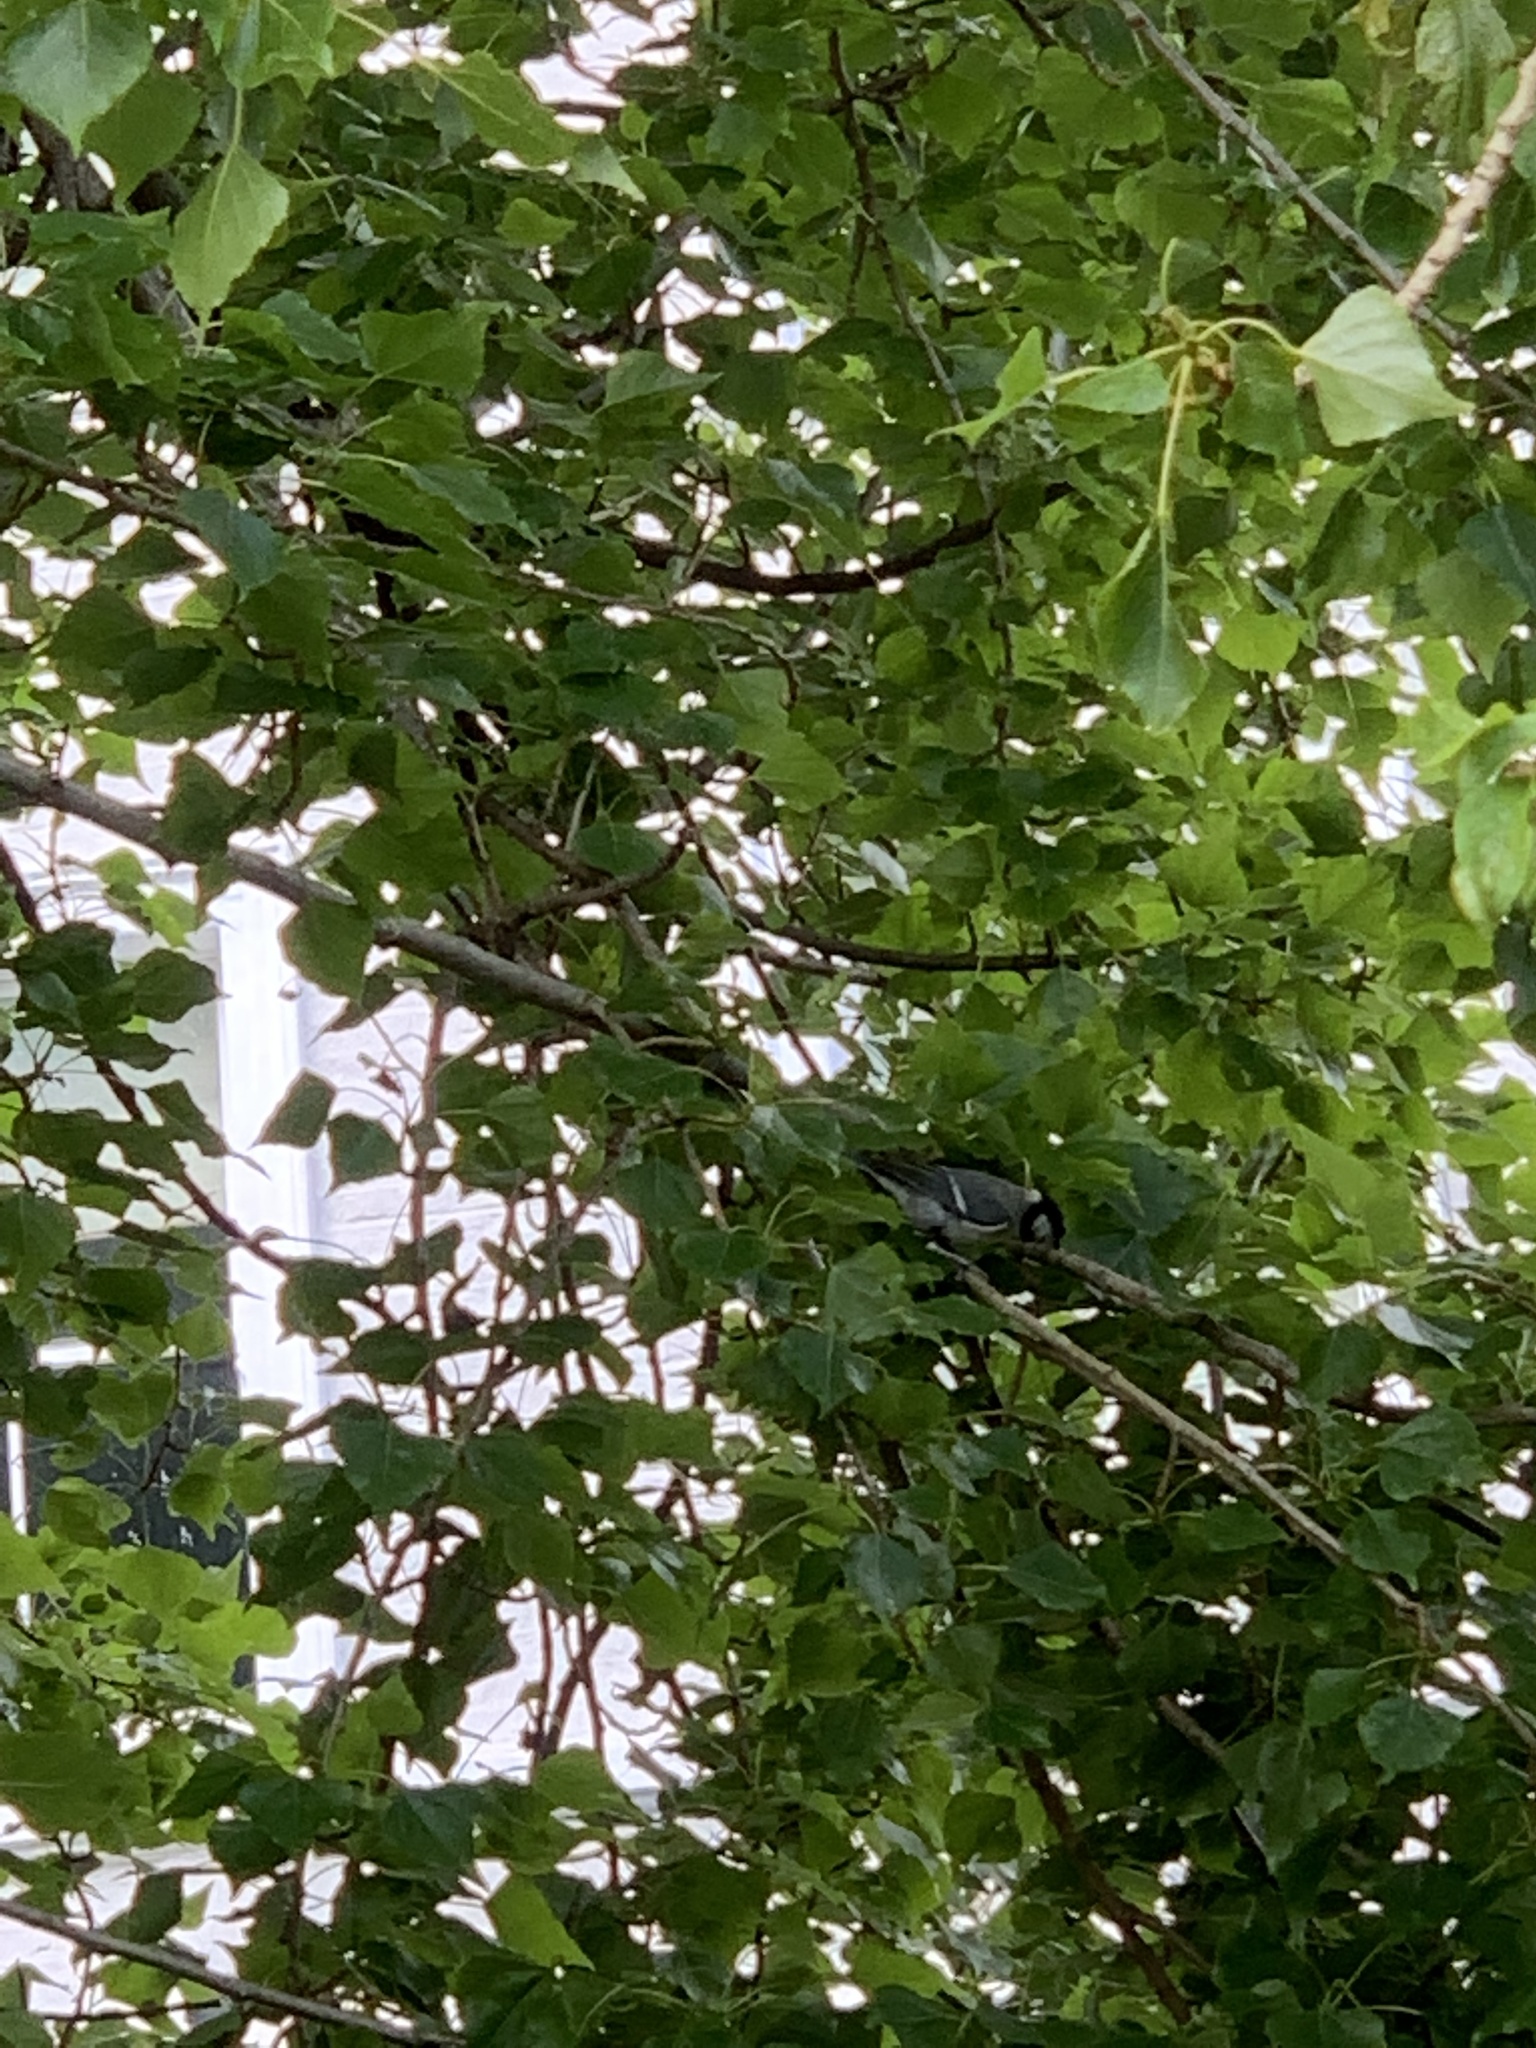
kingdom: Animalia
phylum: Chordata
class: Aves
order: Passeriformes
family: Paridae
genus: Periparus
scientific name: Periparus ater
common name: Coal tit
